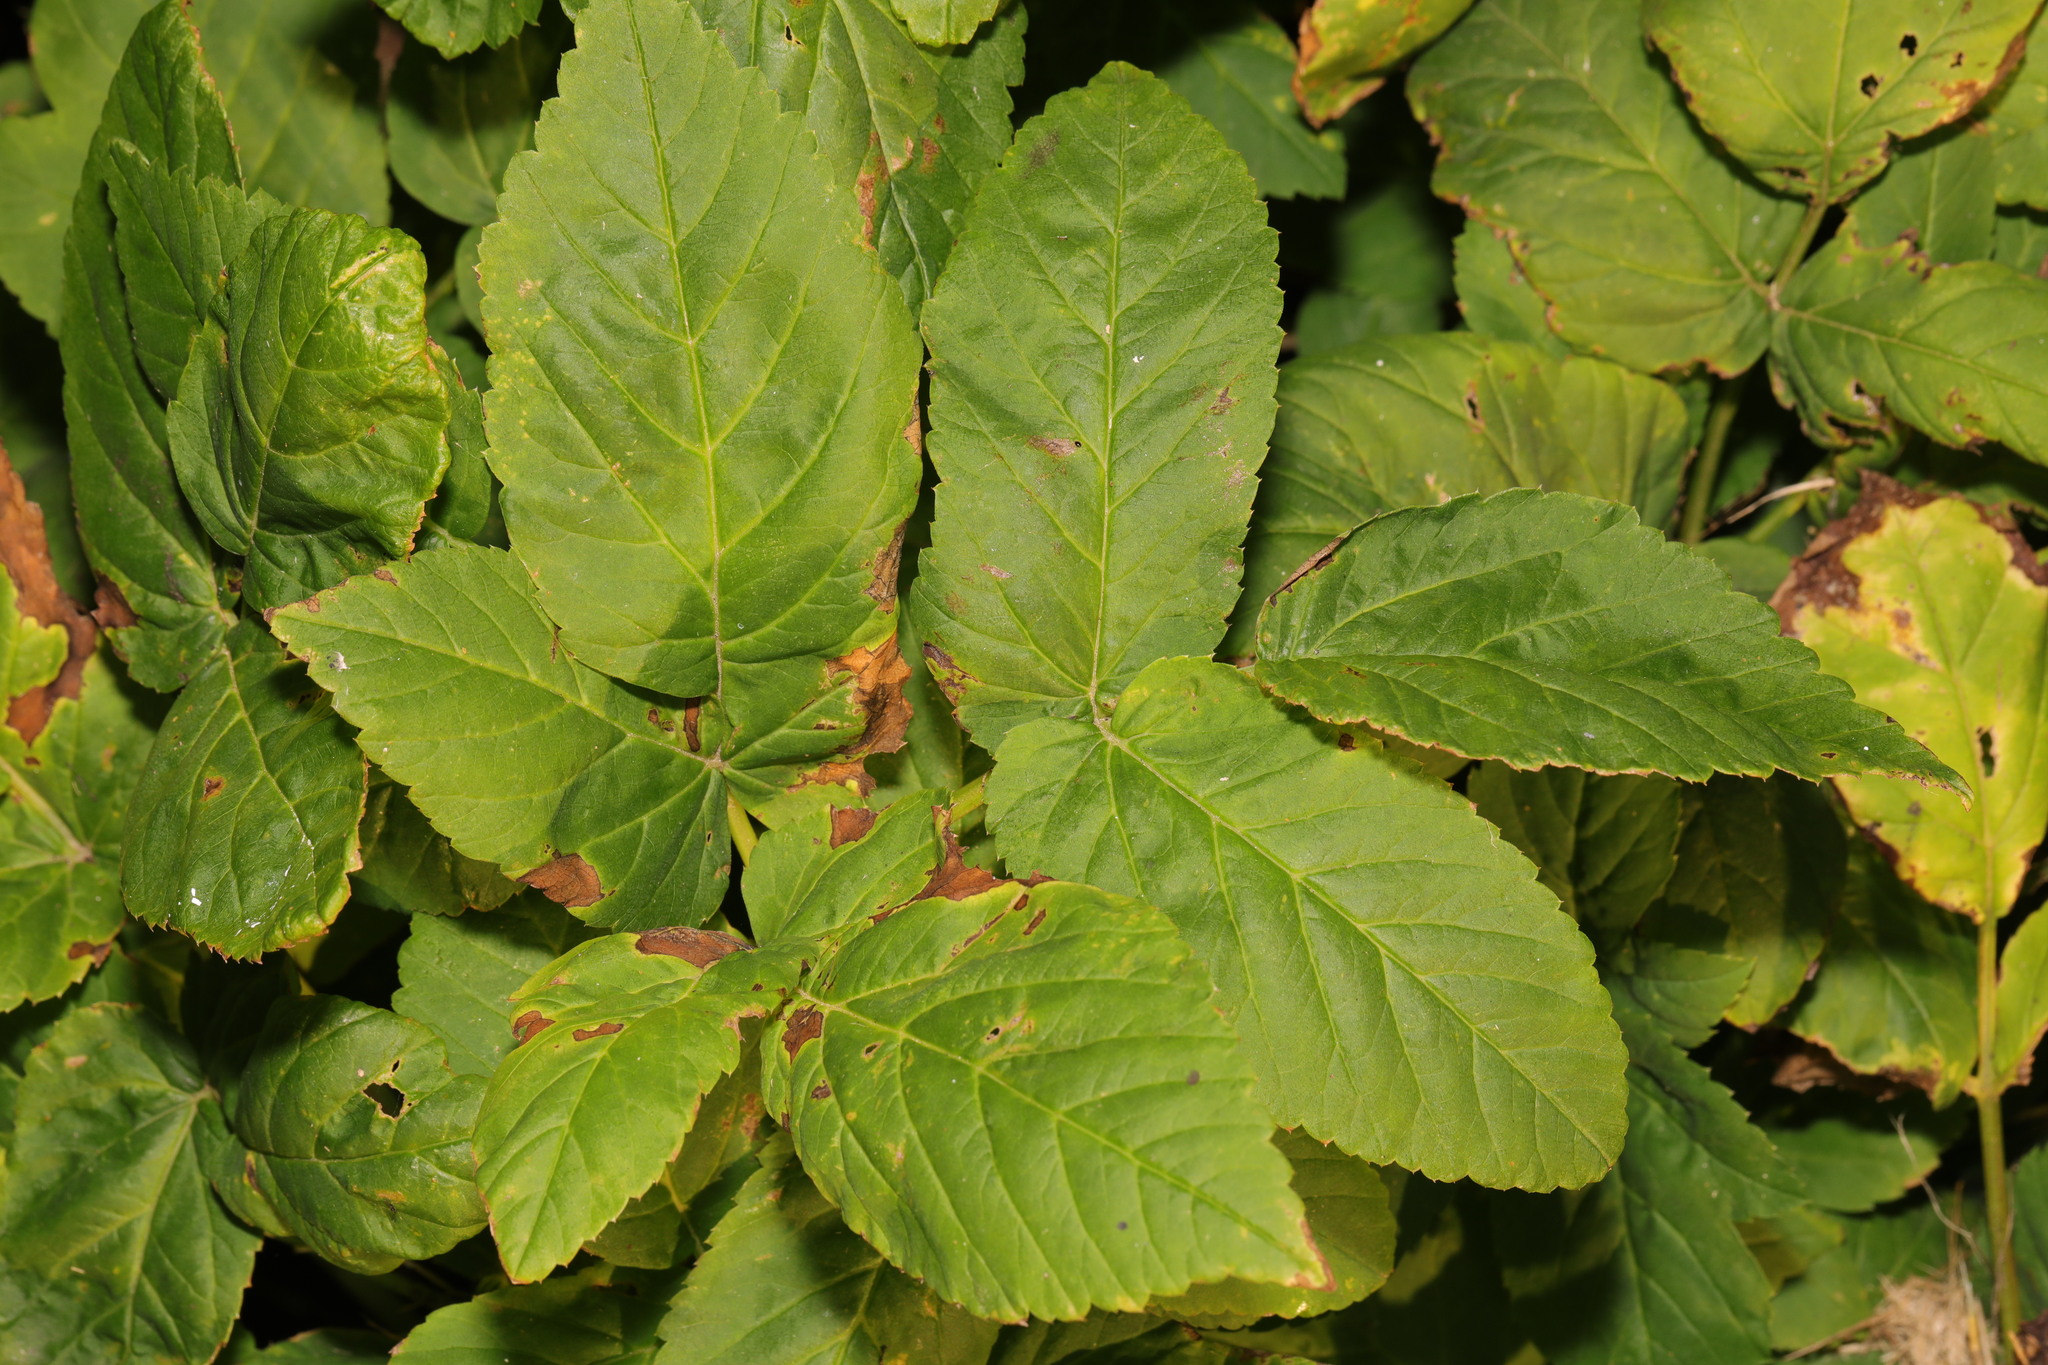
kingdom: Plantae
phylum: Tracheophyta
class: Magnoliopsida
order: Apiales
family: Apiaceae
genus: Aegopodium
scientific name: Aegopodium podagraria
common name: Ground-elder
